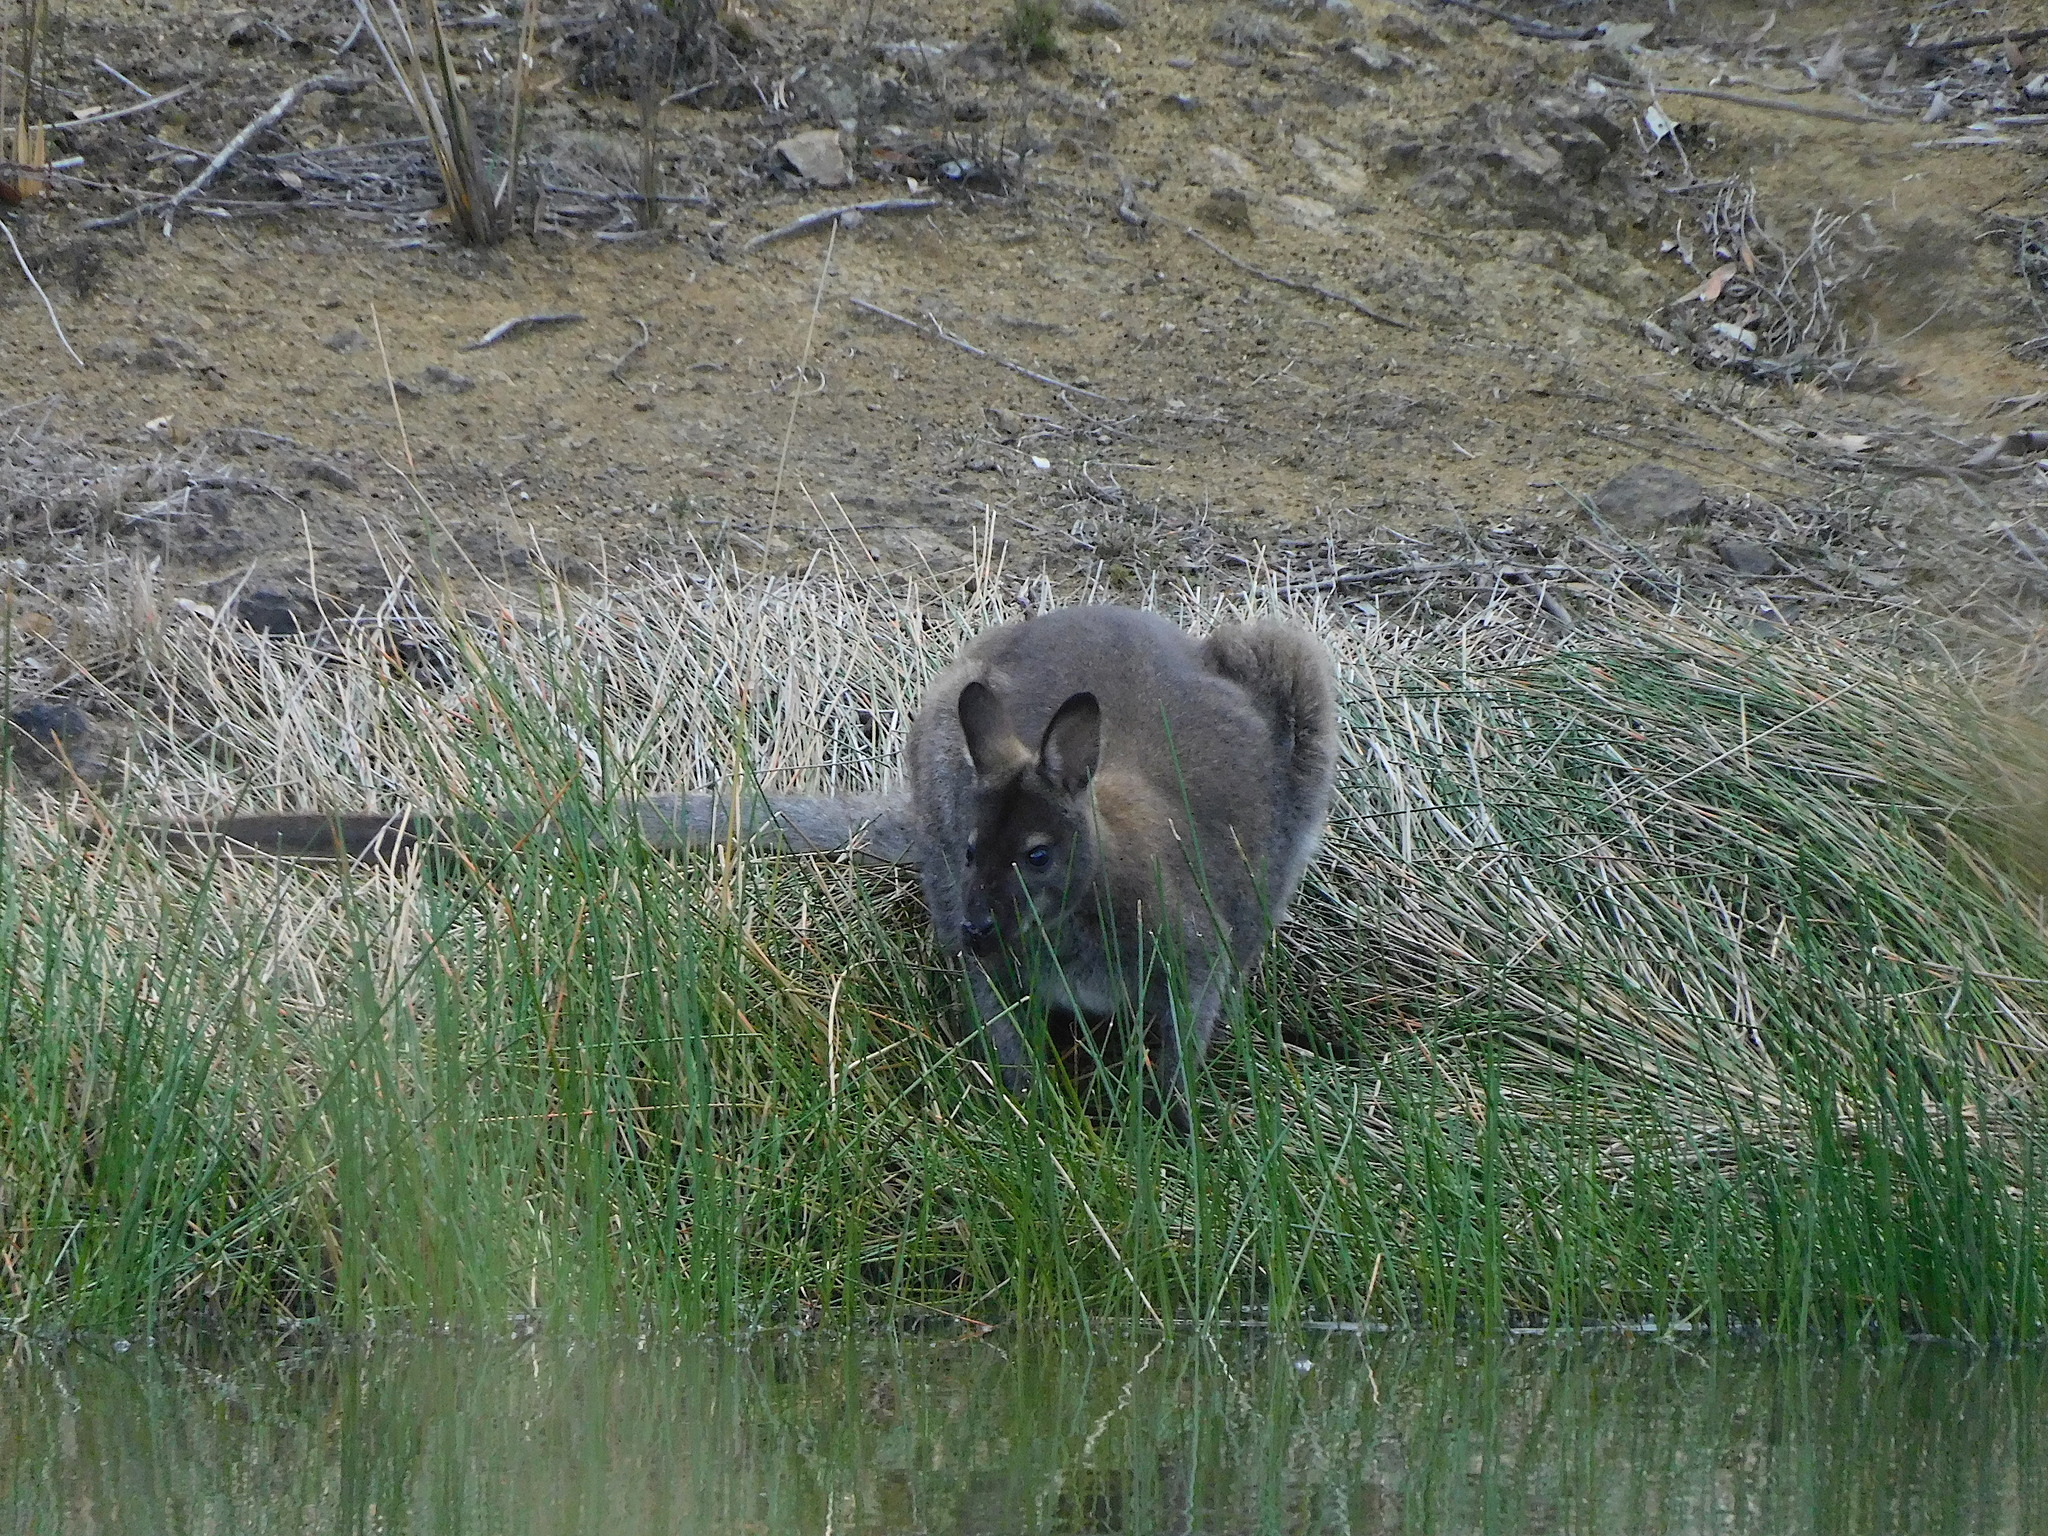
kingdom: Animalia
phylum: Chordata
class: Mammalia
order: Diprotodontia
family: Macropodidae
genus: Notamacropus
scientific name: Notamacropus rufogriseus
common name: Red-necked wallaby
